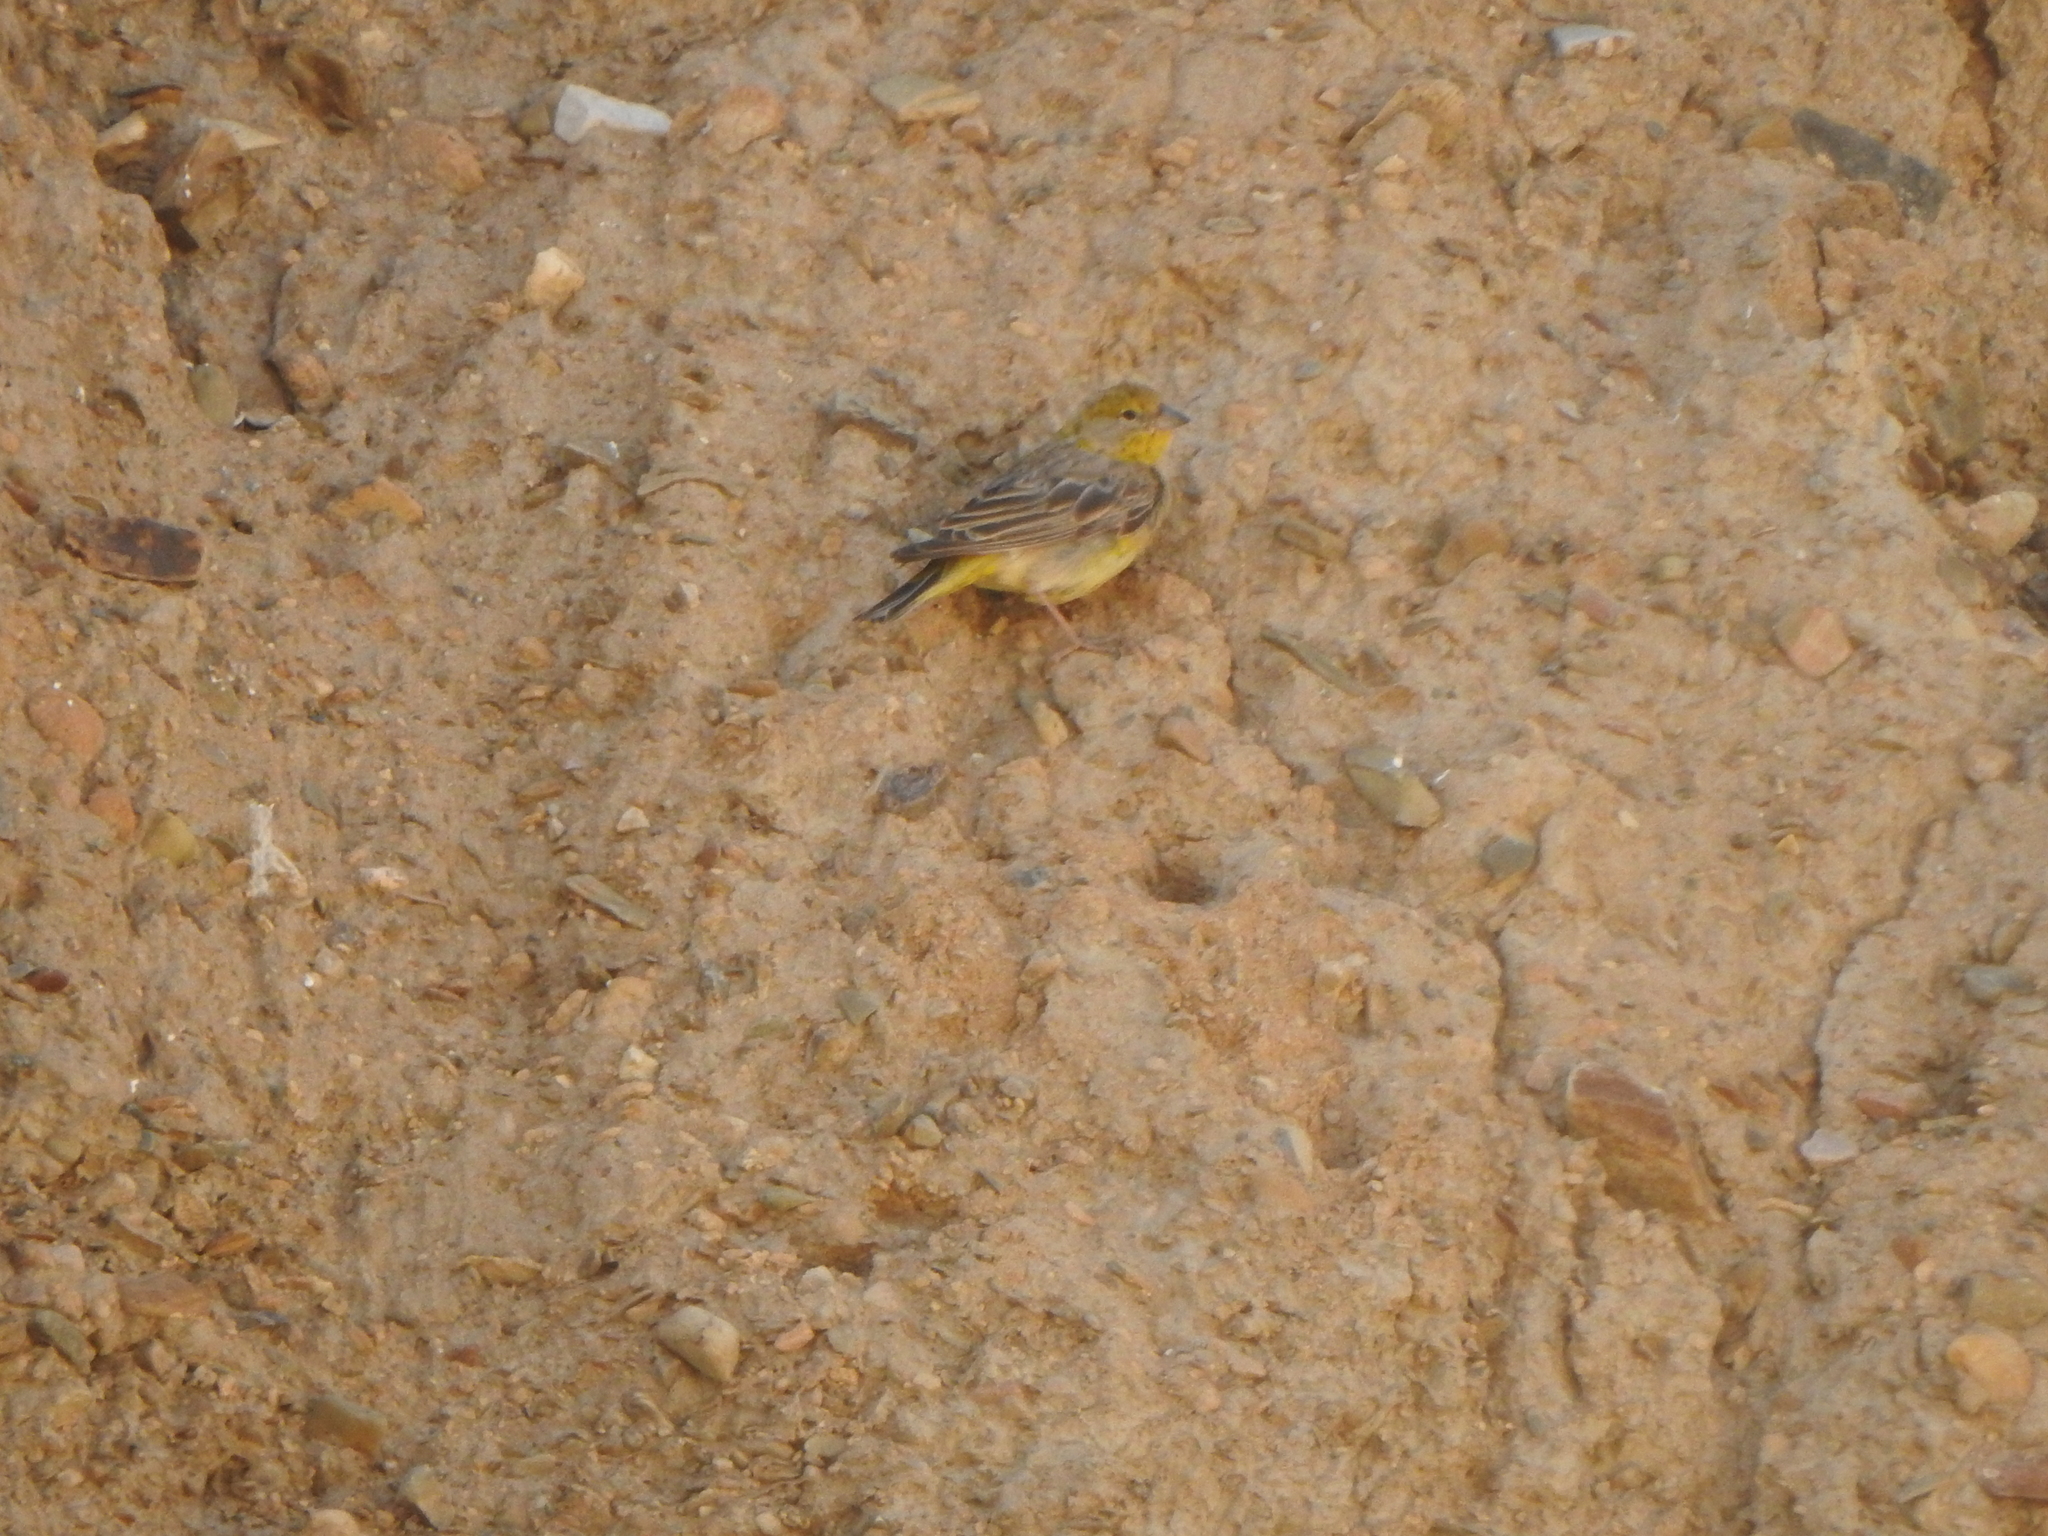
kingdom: Animalia
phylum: Chordata
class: Aves
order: Passeriformes
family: Thraupidae
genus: Sicalis
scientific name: Sicalis uropigyalis
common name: Bright-rumped yellow finch
